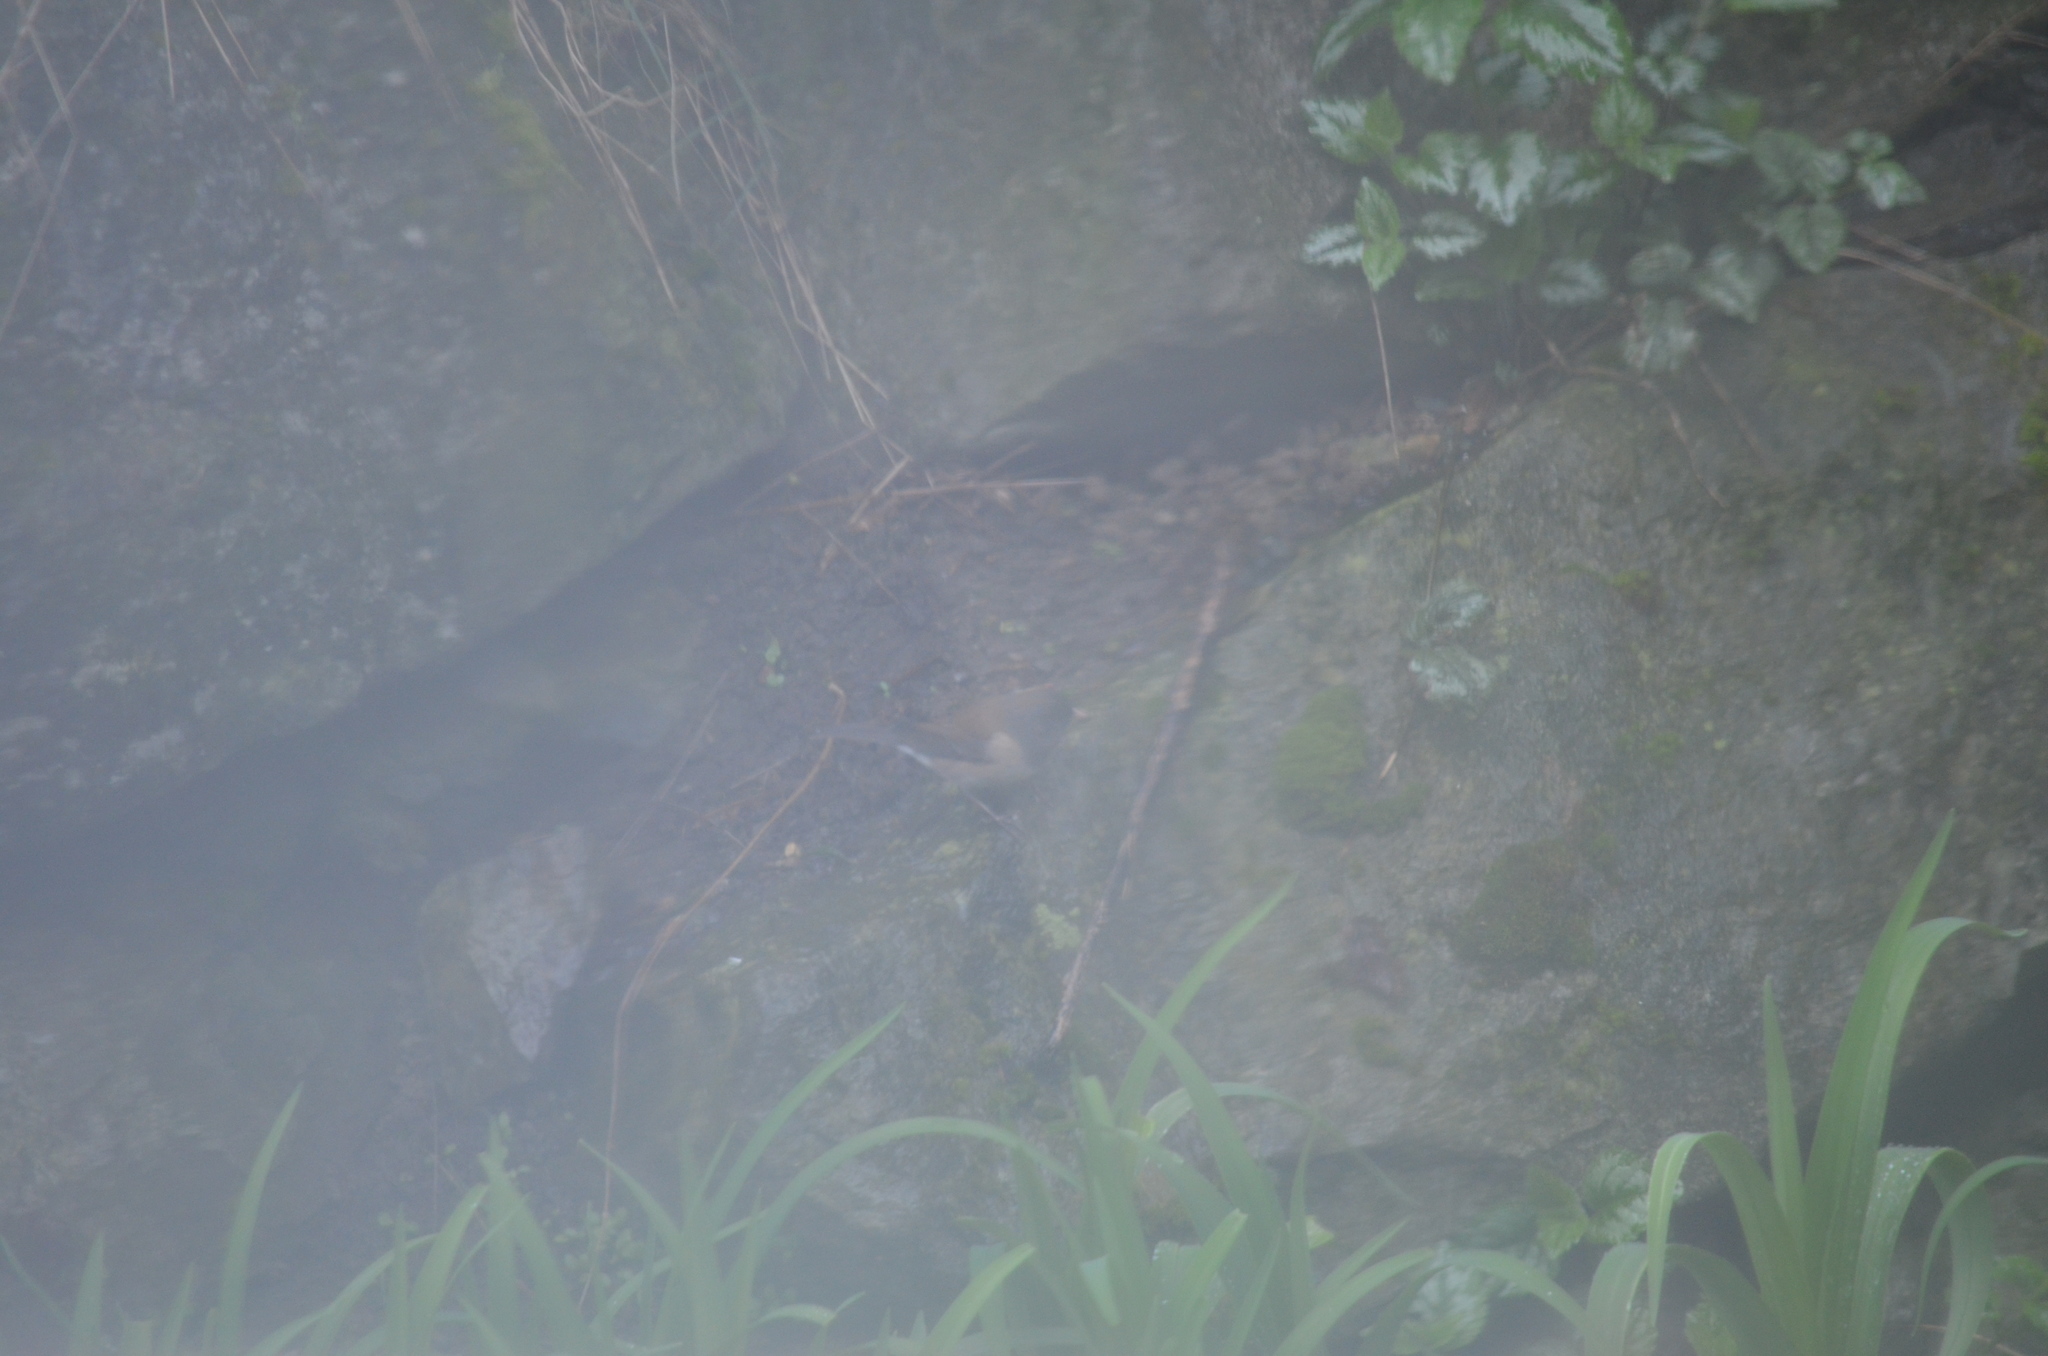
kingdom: Animalia
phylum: Chordata
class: Aves
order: Passeriformes
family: Passerellidae
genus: Junco
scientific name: Junco hyemalis
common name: Dark-eyed junco
